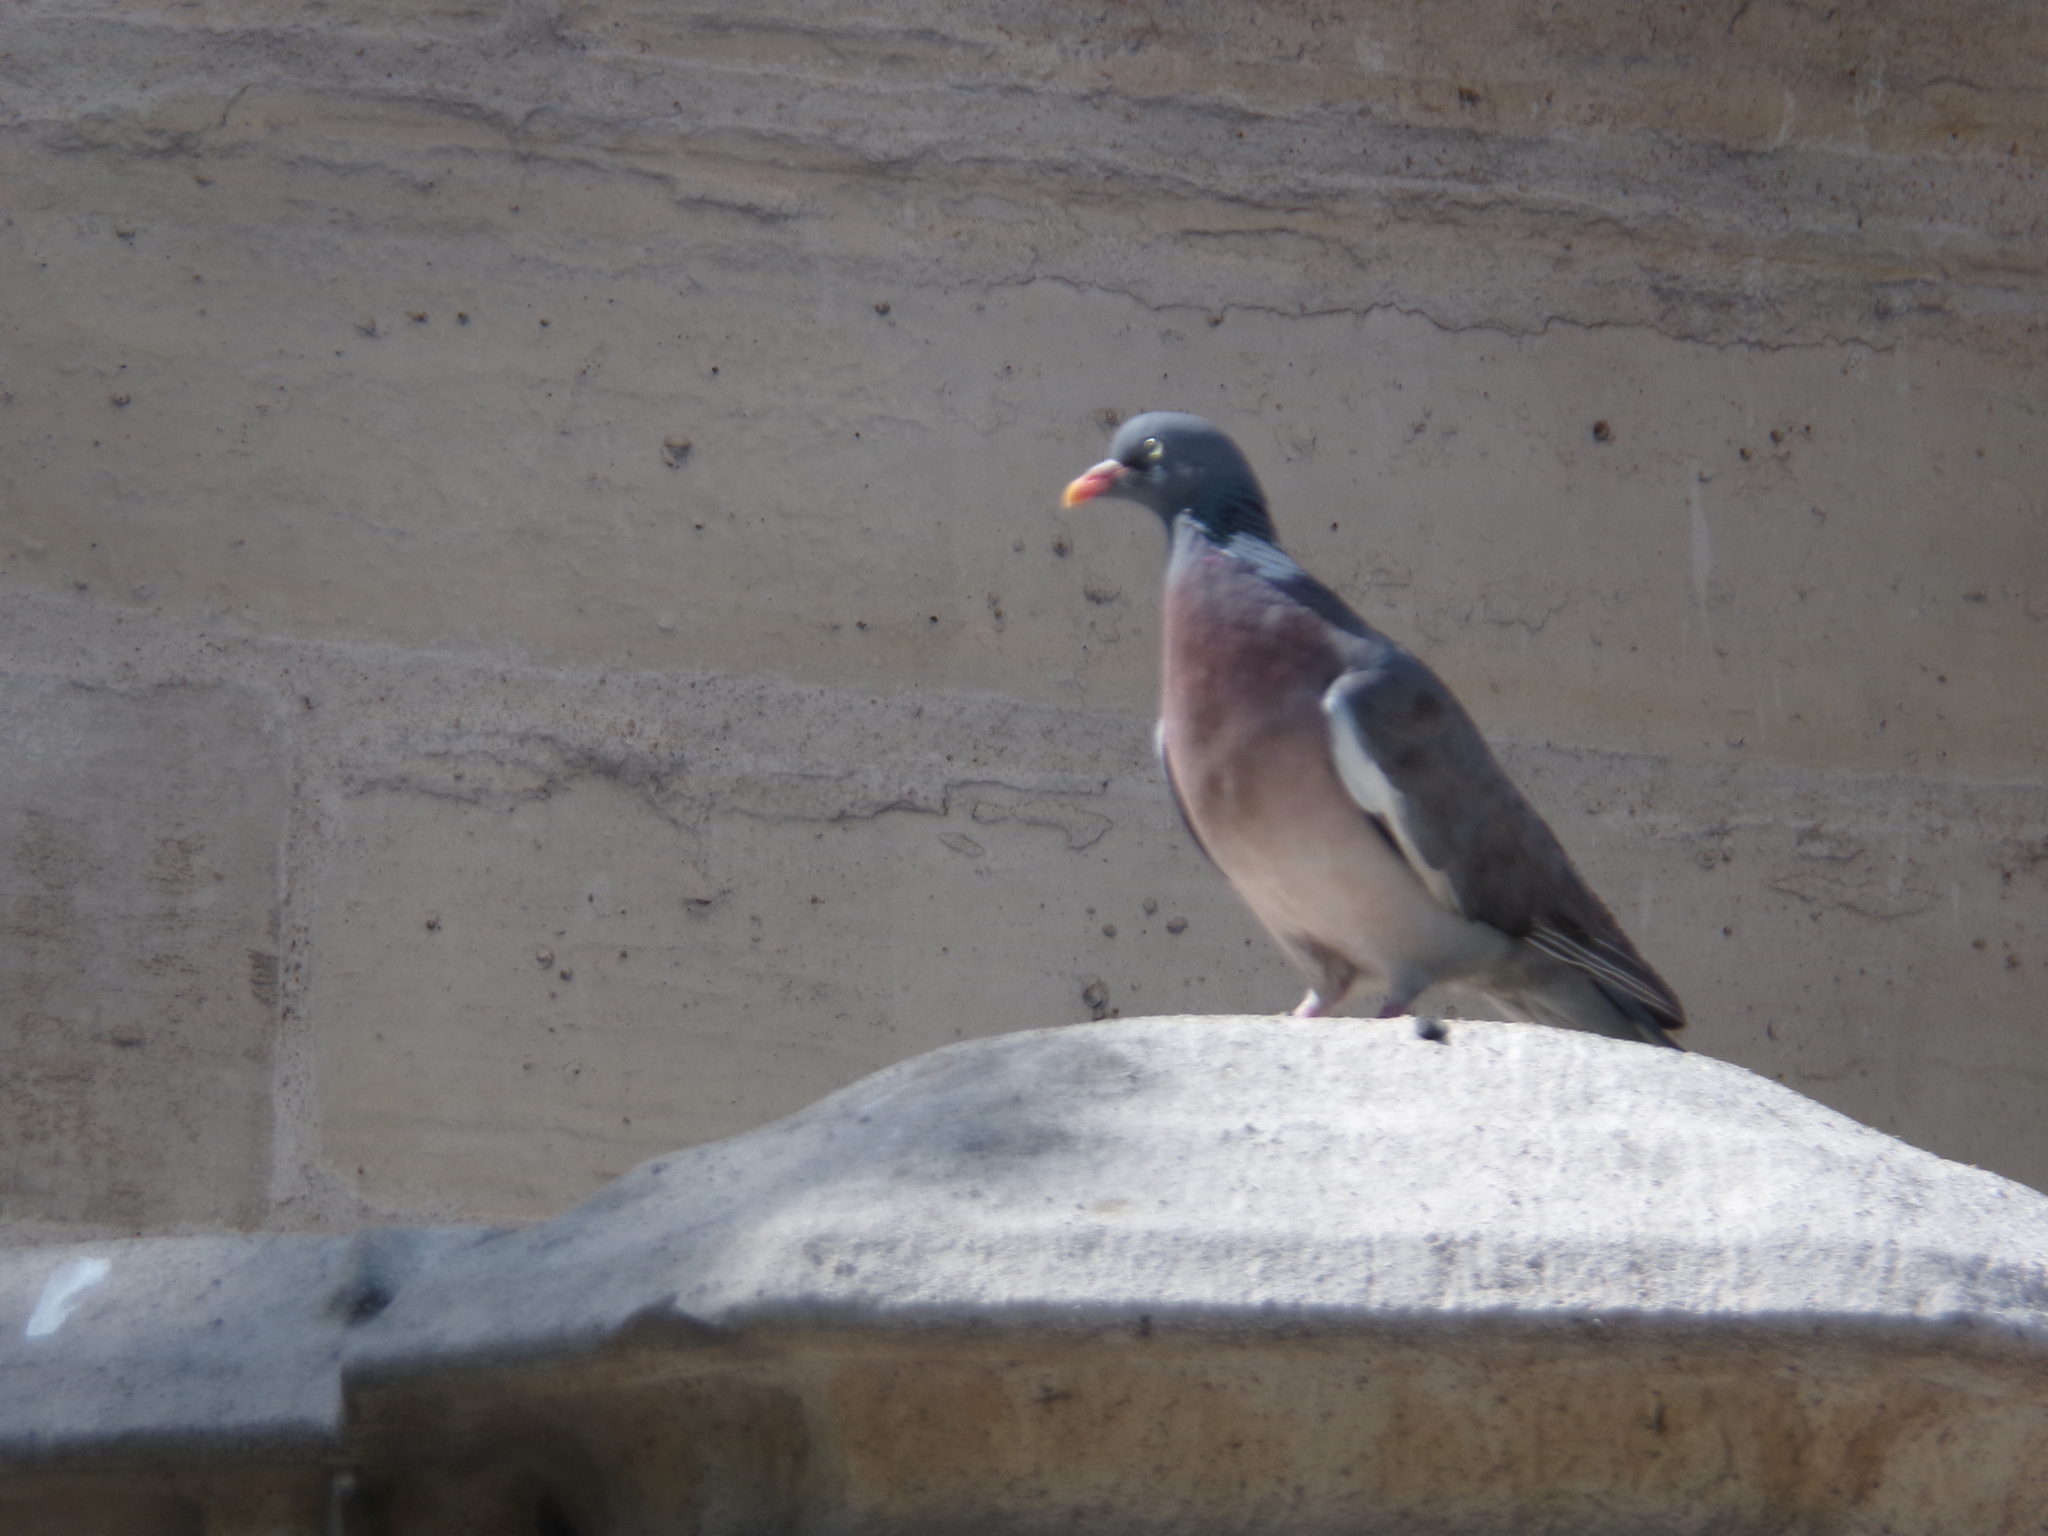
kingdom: Animalia
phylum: Chordata
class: Aves
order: Columbiformes
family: Columbidae
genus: Columba
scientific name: Columba palumbus
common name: Common wood pigeon
